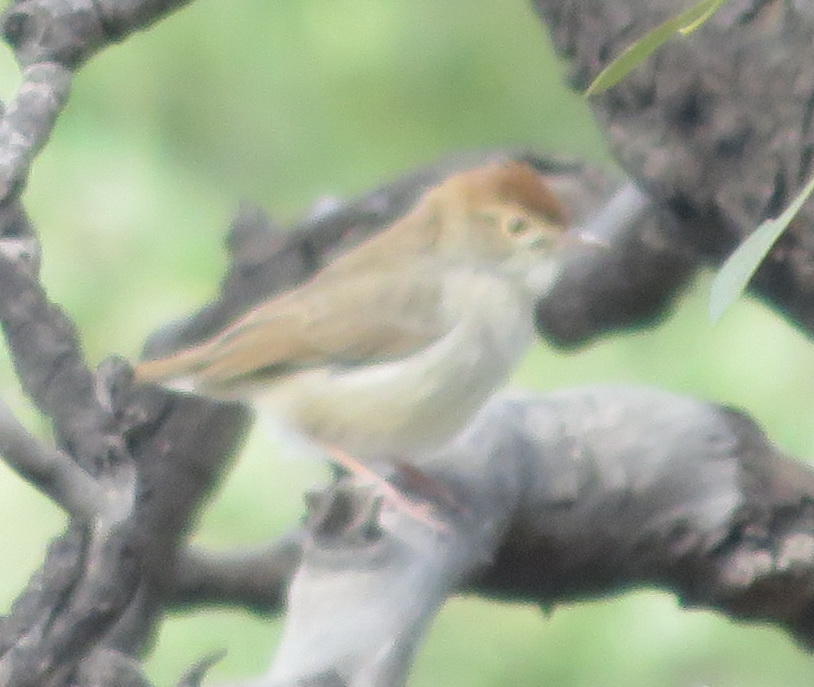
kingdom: Animalia
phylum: Chordata
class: Aves
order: Passeriformes
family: Cisticolidae
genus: Cisticola
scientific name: Cisticola fulvicapilla
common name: Neddicky
